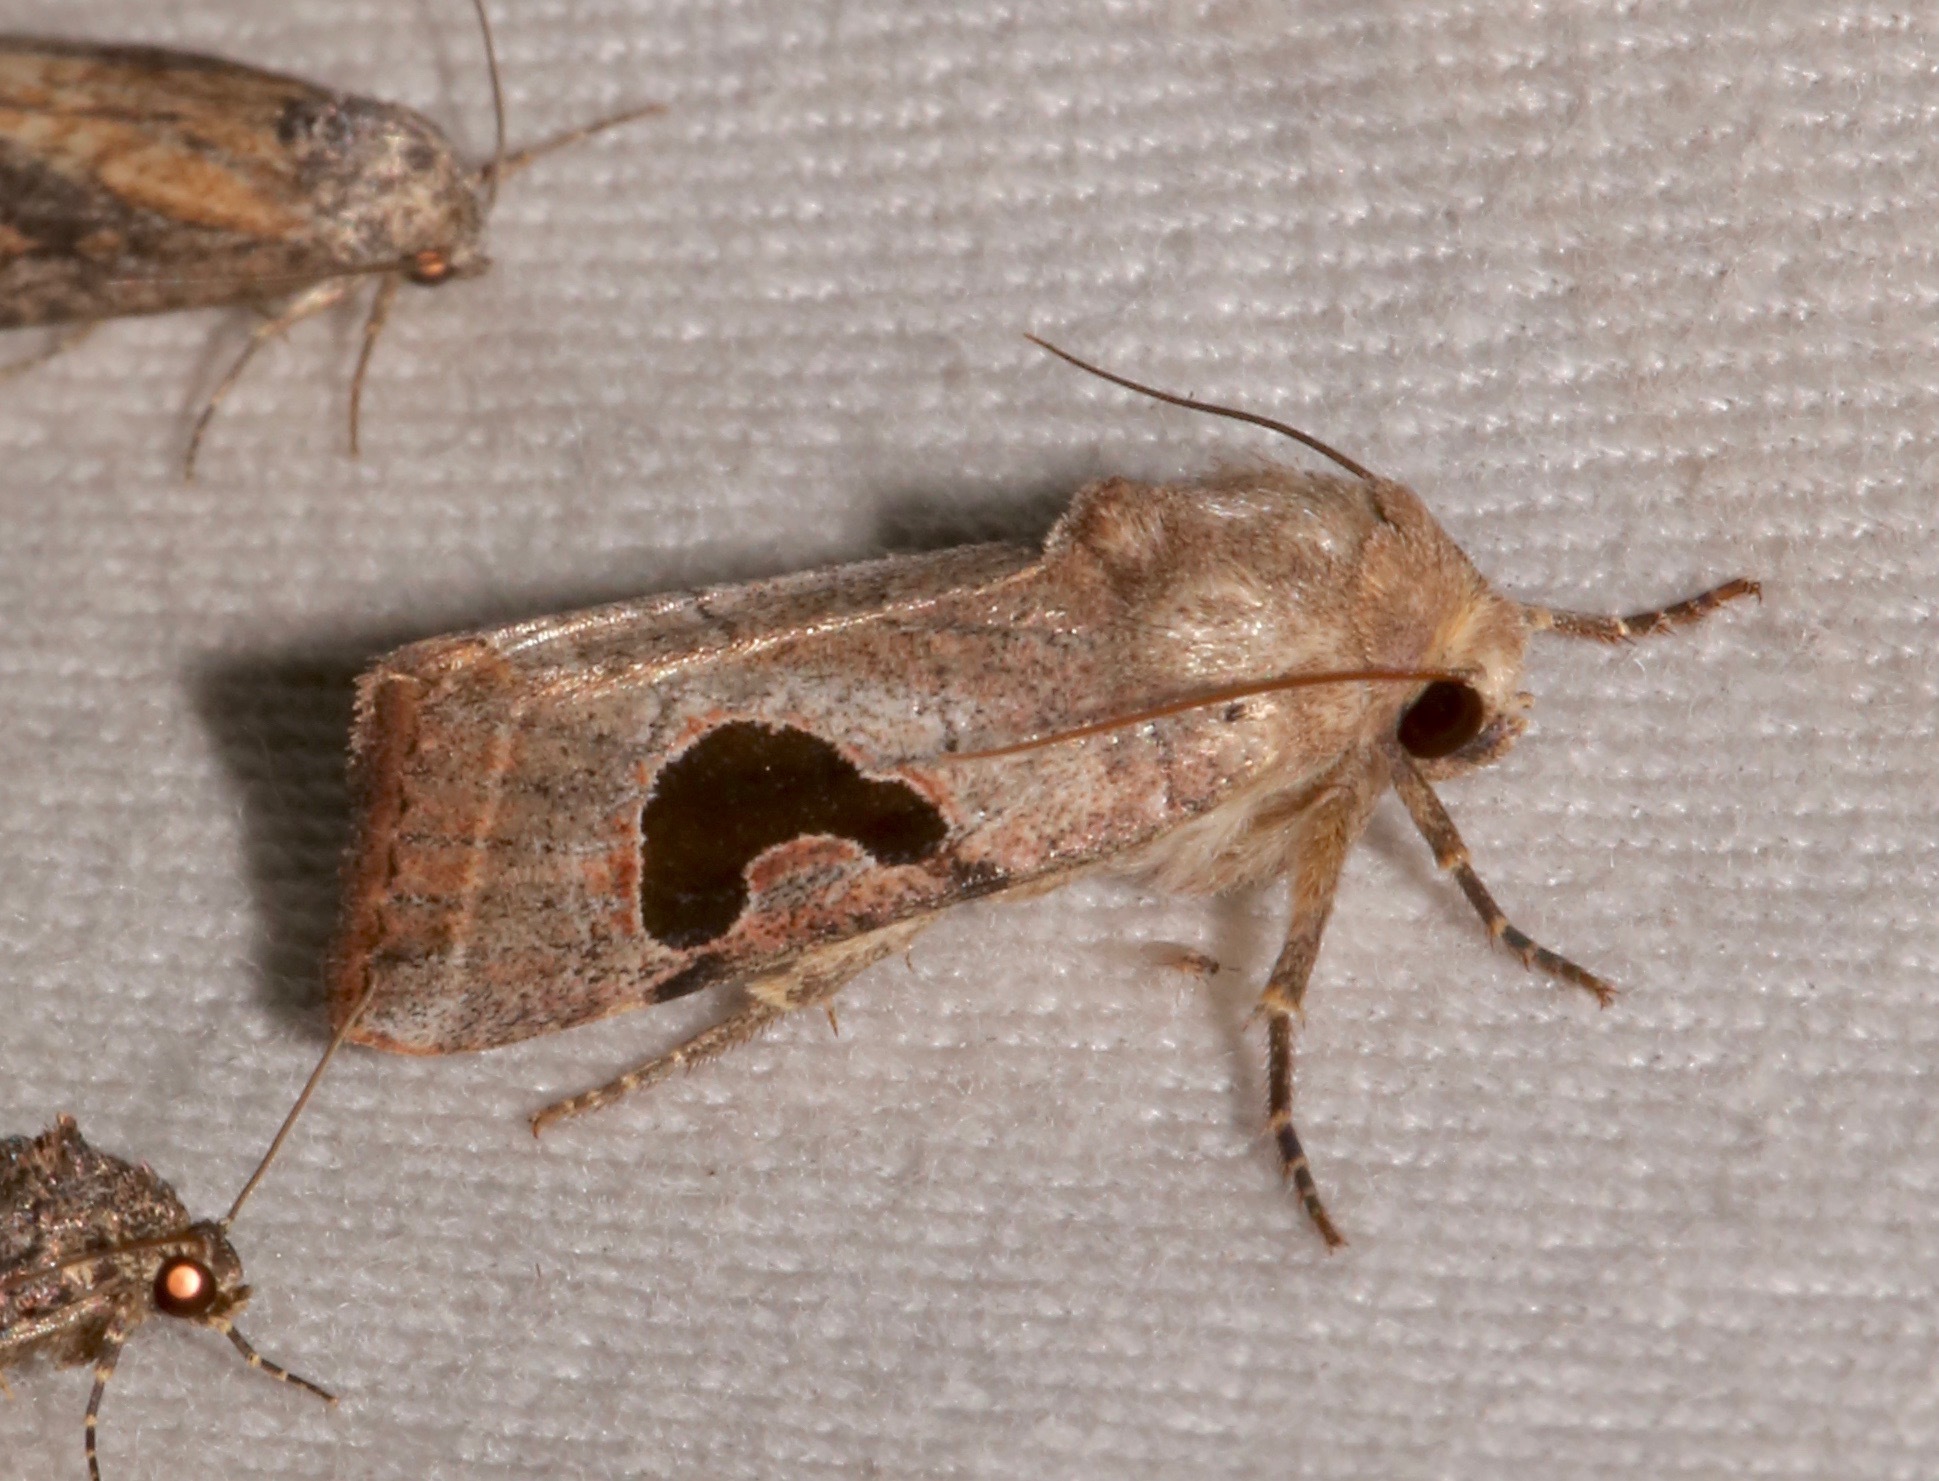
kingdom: Animalia
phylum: Arthropoda
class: Insecta
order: Lepidoptera
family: Noctuidae
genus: Eriopyga
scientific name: Eriopyga lunata
